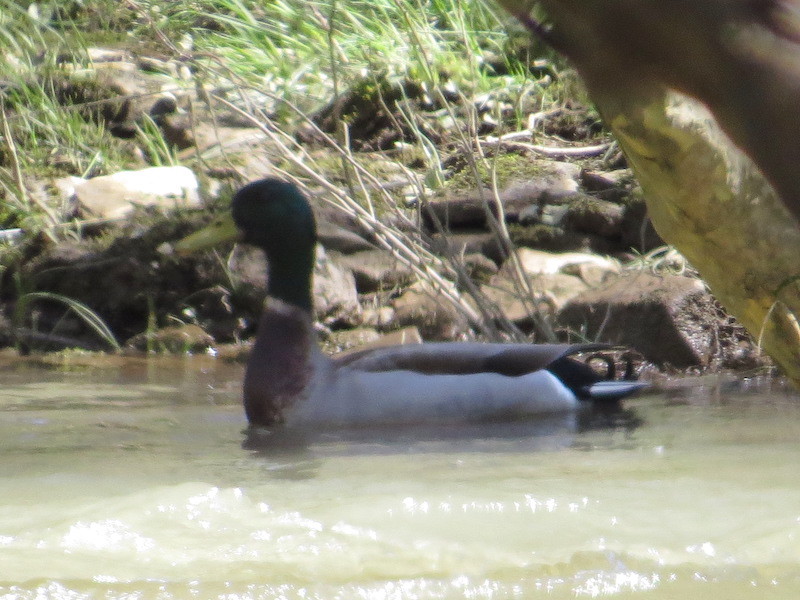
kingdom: Animalia
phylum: Chordata
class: Aves
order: Anseriformes
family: Anatidae
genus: Anas
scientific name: Anas platyrhynchos
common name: Mallard
